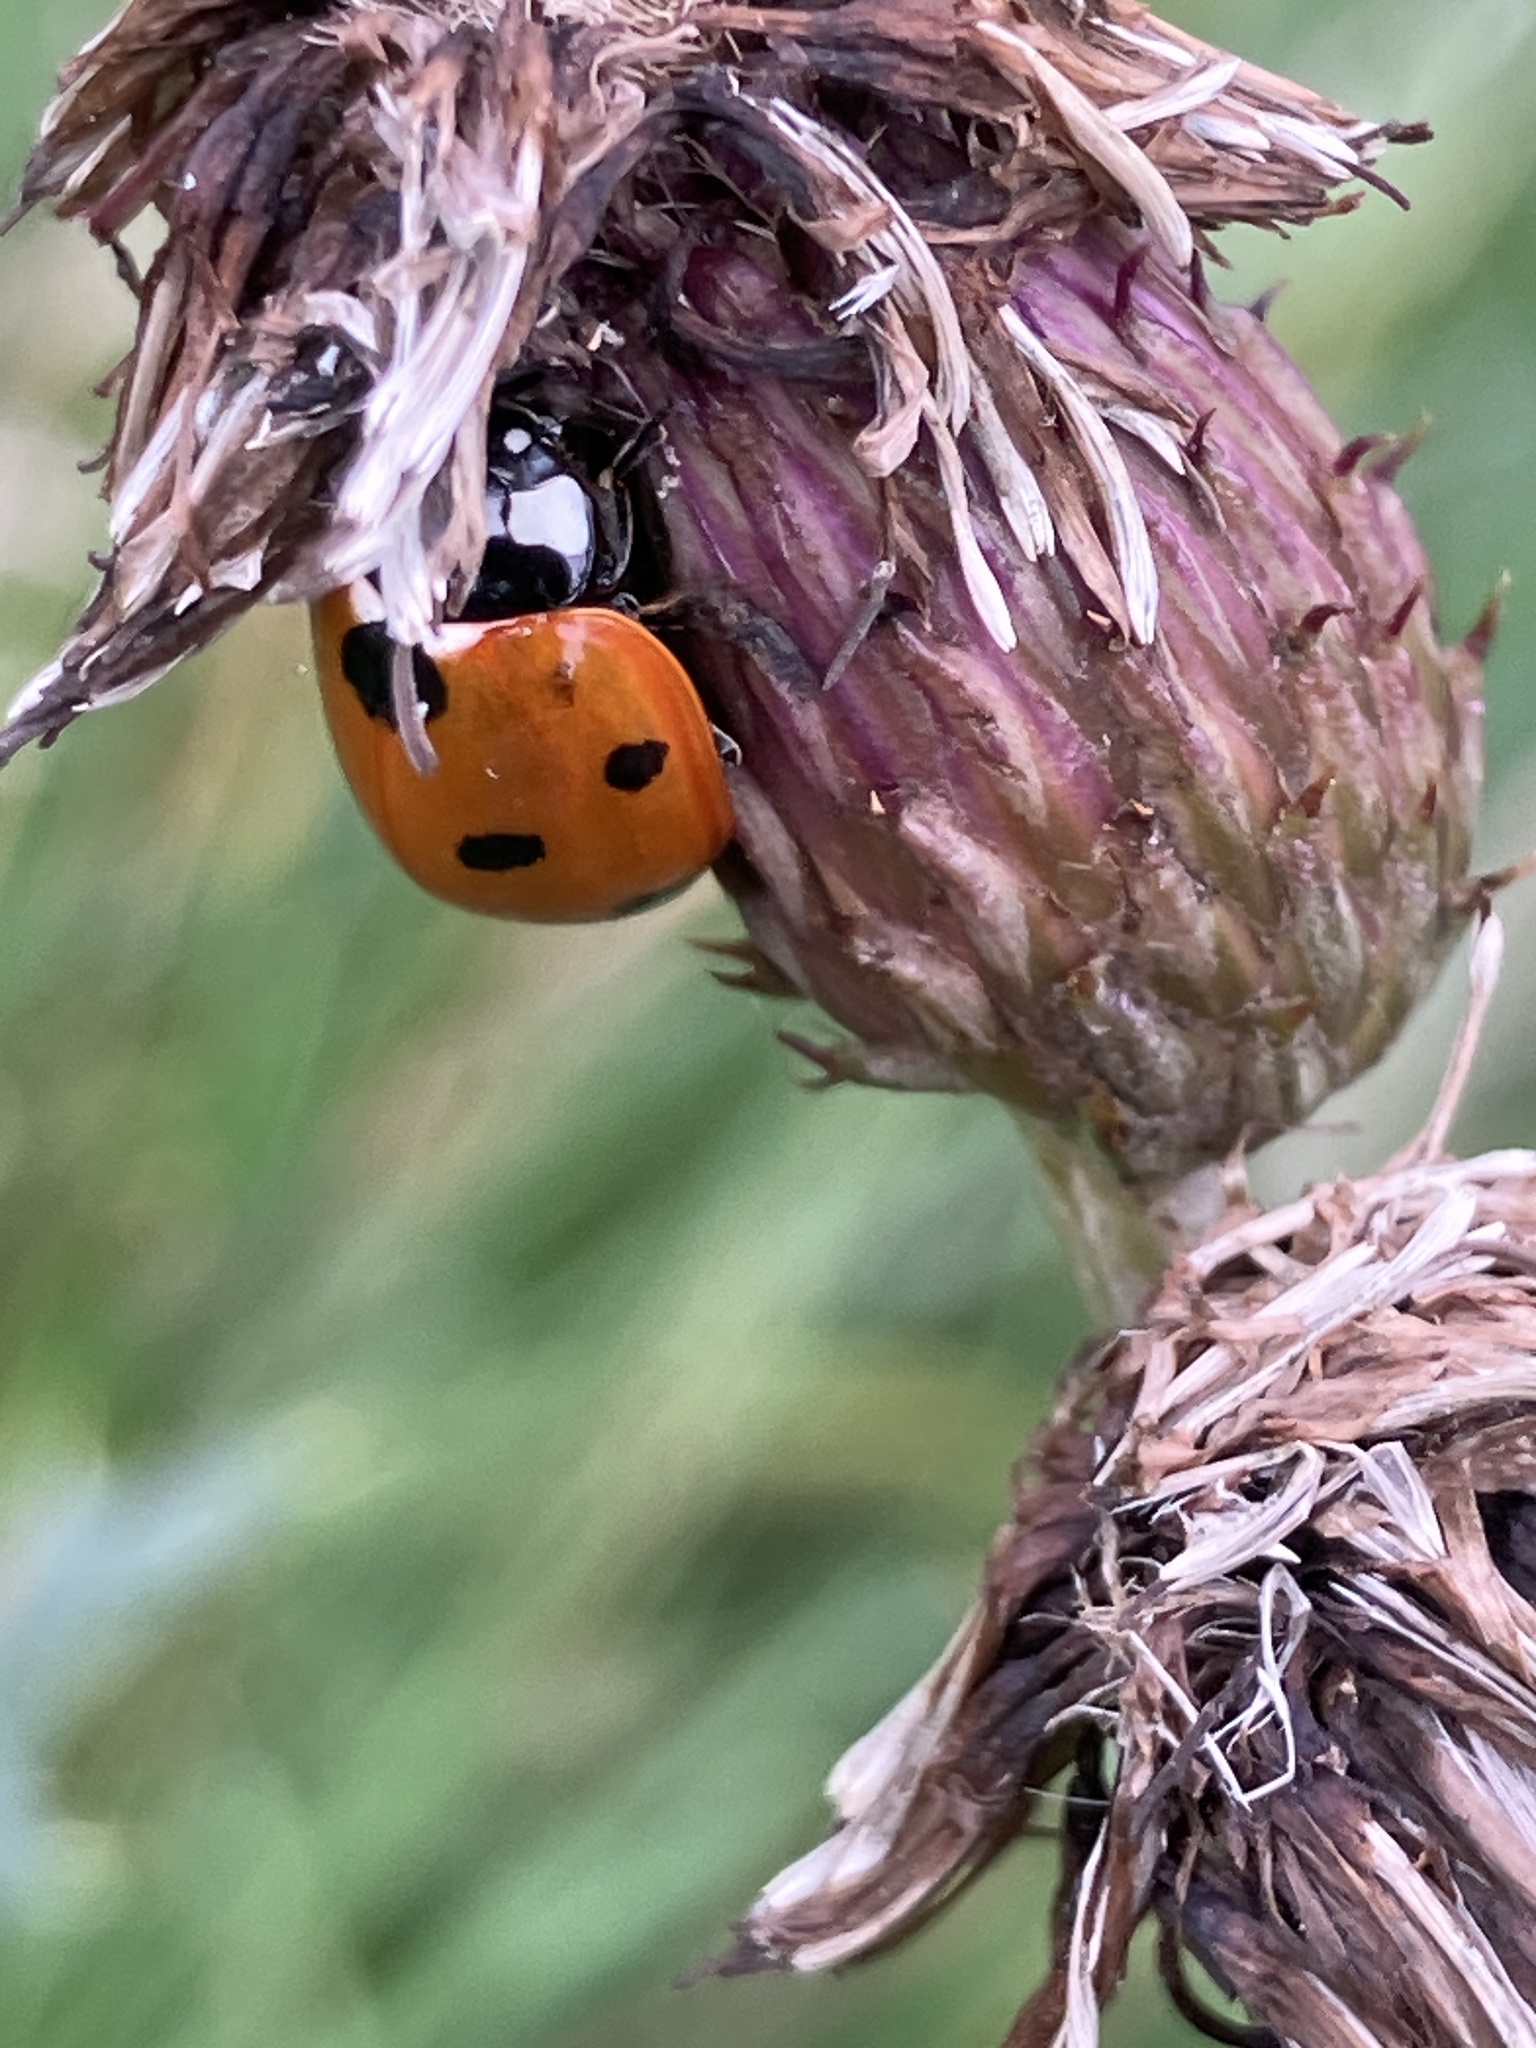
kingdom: Animalia
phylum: Arthropoda
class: Insecta
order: Coleoptera
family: Coccinellidae
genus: Coccinella
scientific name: Coccinella septempunctata
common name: Sevenspotted lady beetle
